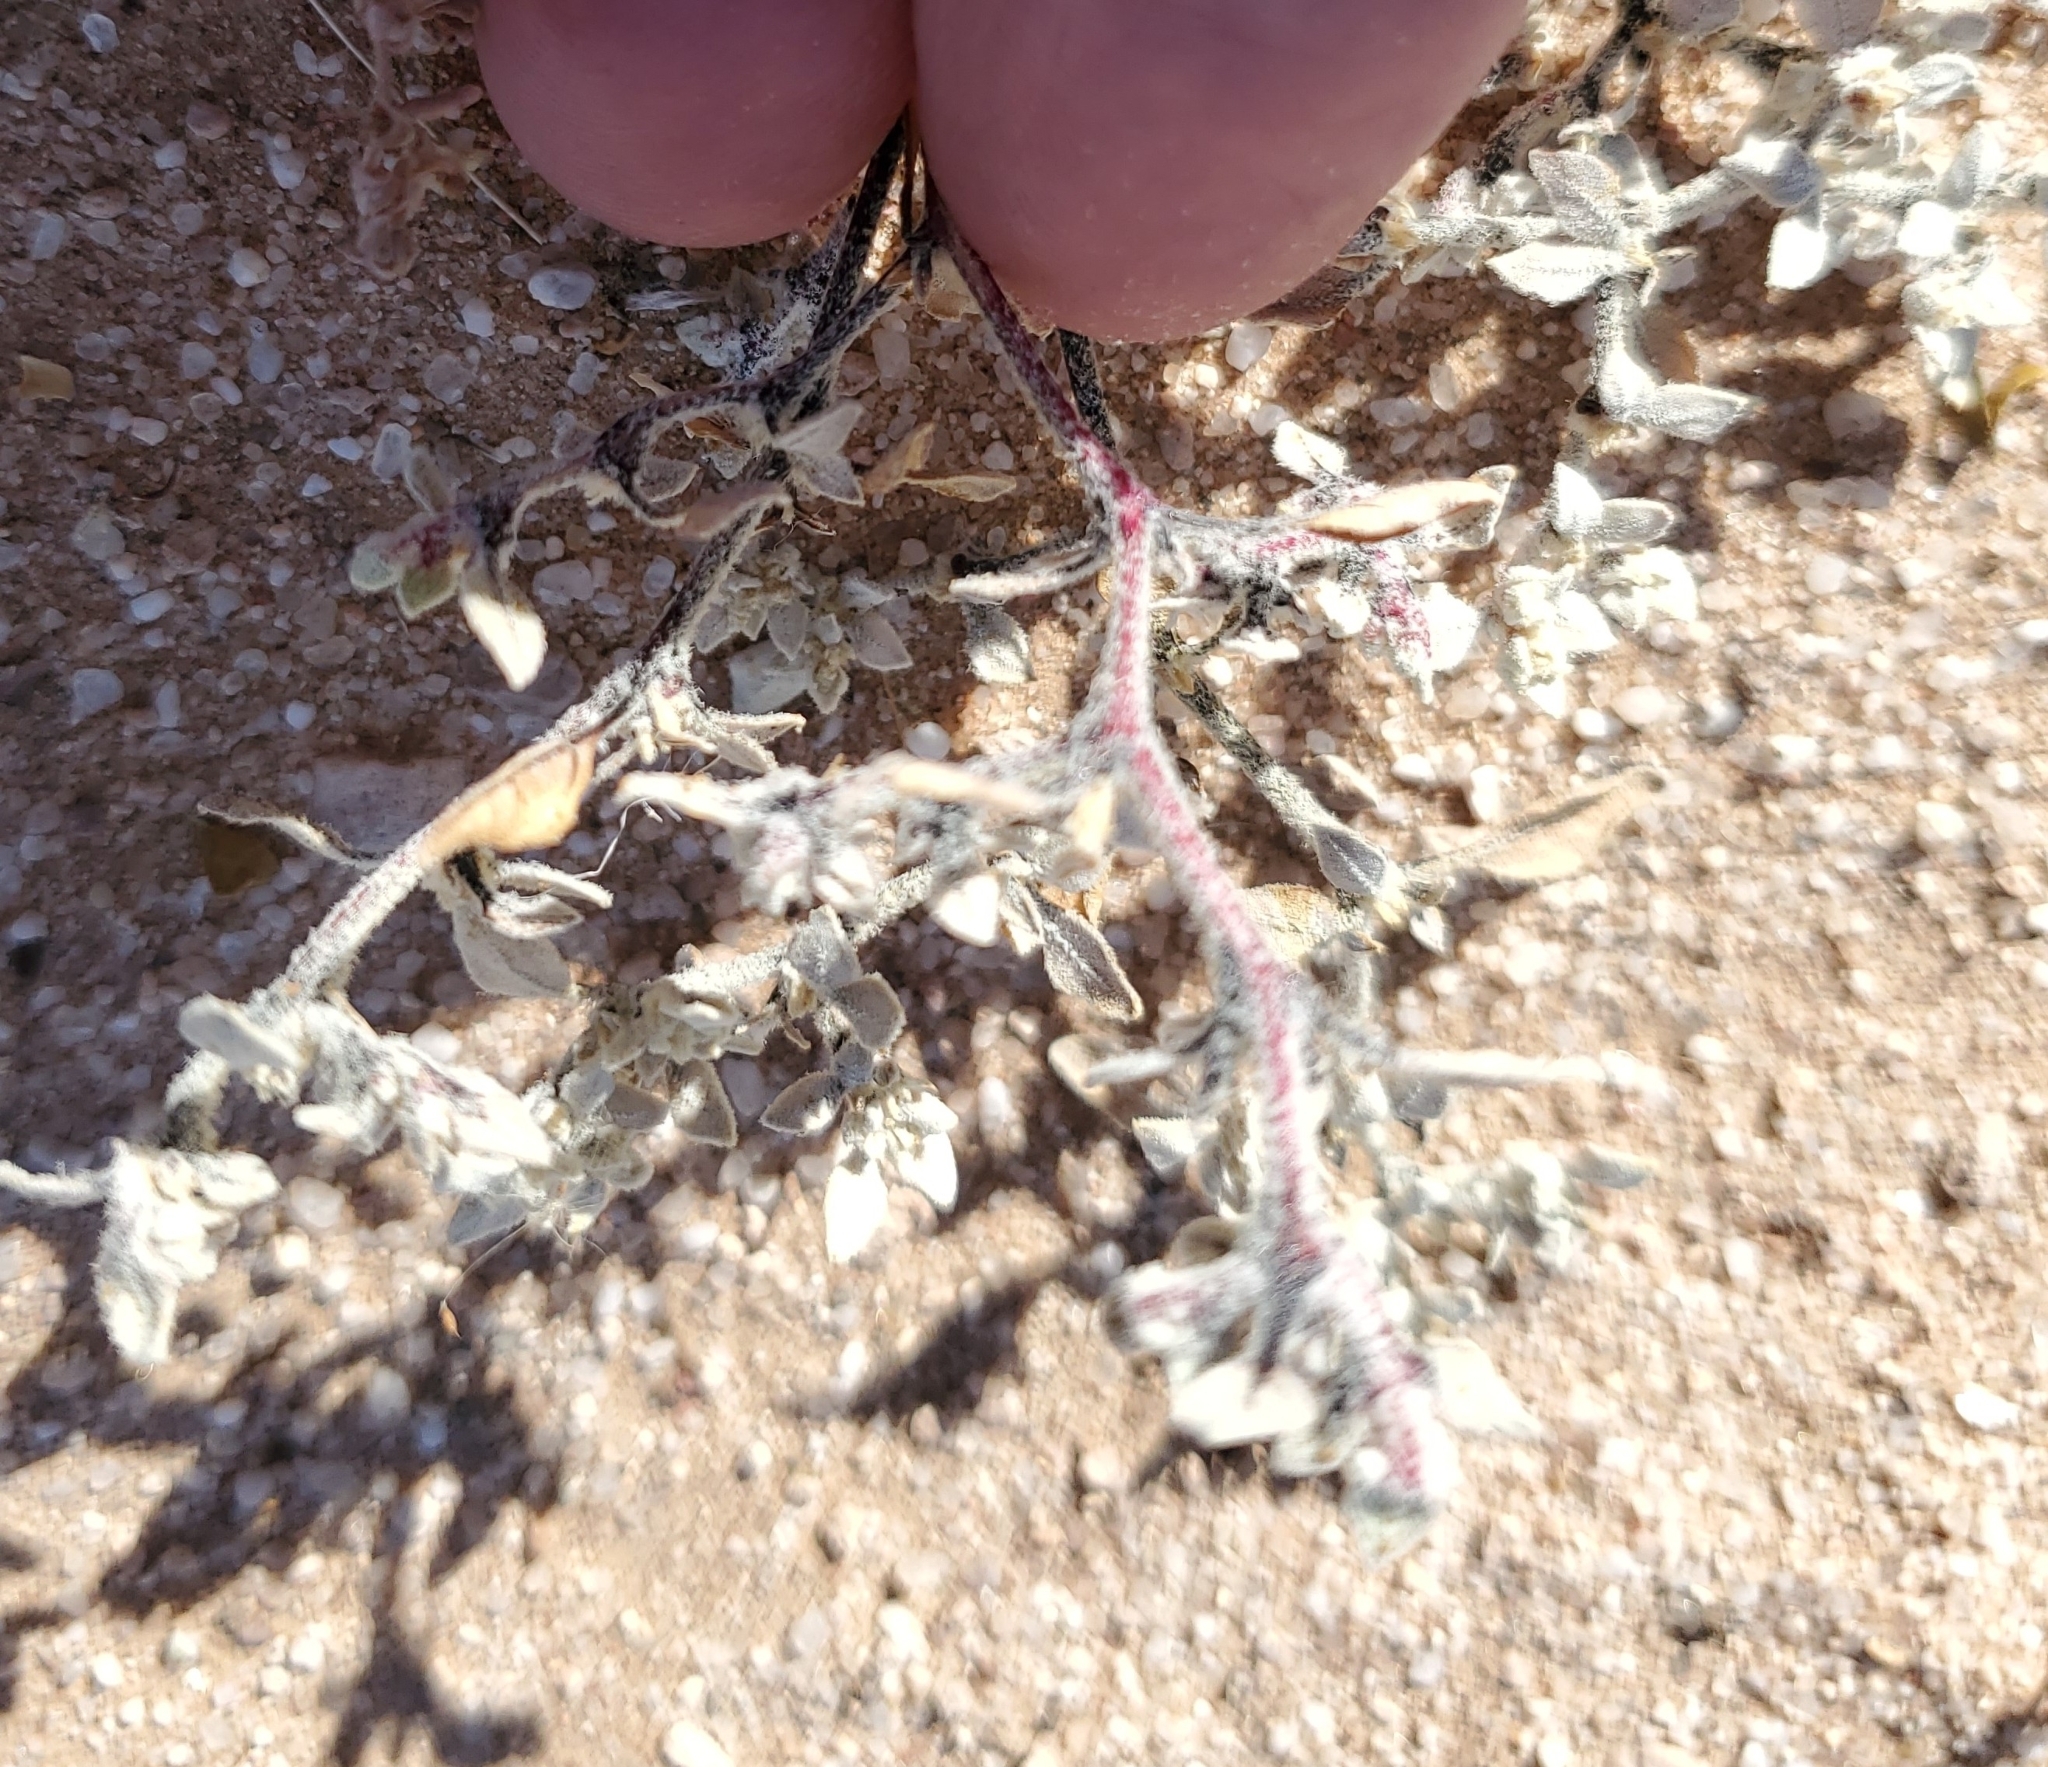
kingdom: Plantae
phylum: Tracheophyta
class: Magnoliopsida
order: Caryophyllales
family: Amaranthaceae
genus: Tidestromia
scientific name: Tidestromia lanuginosa
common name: Woolly tidestromia
